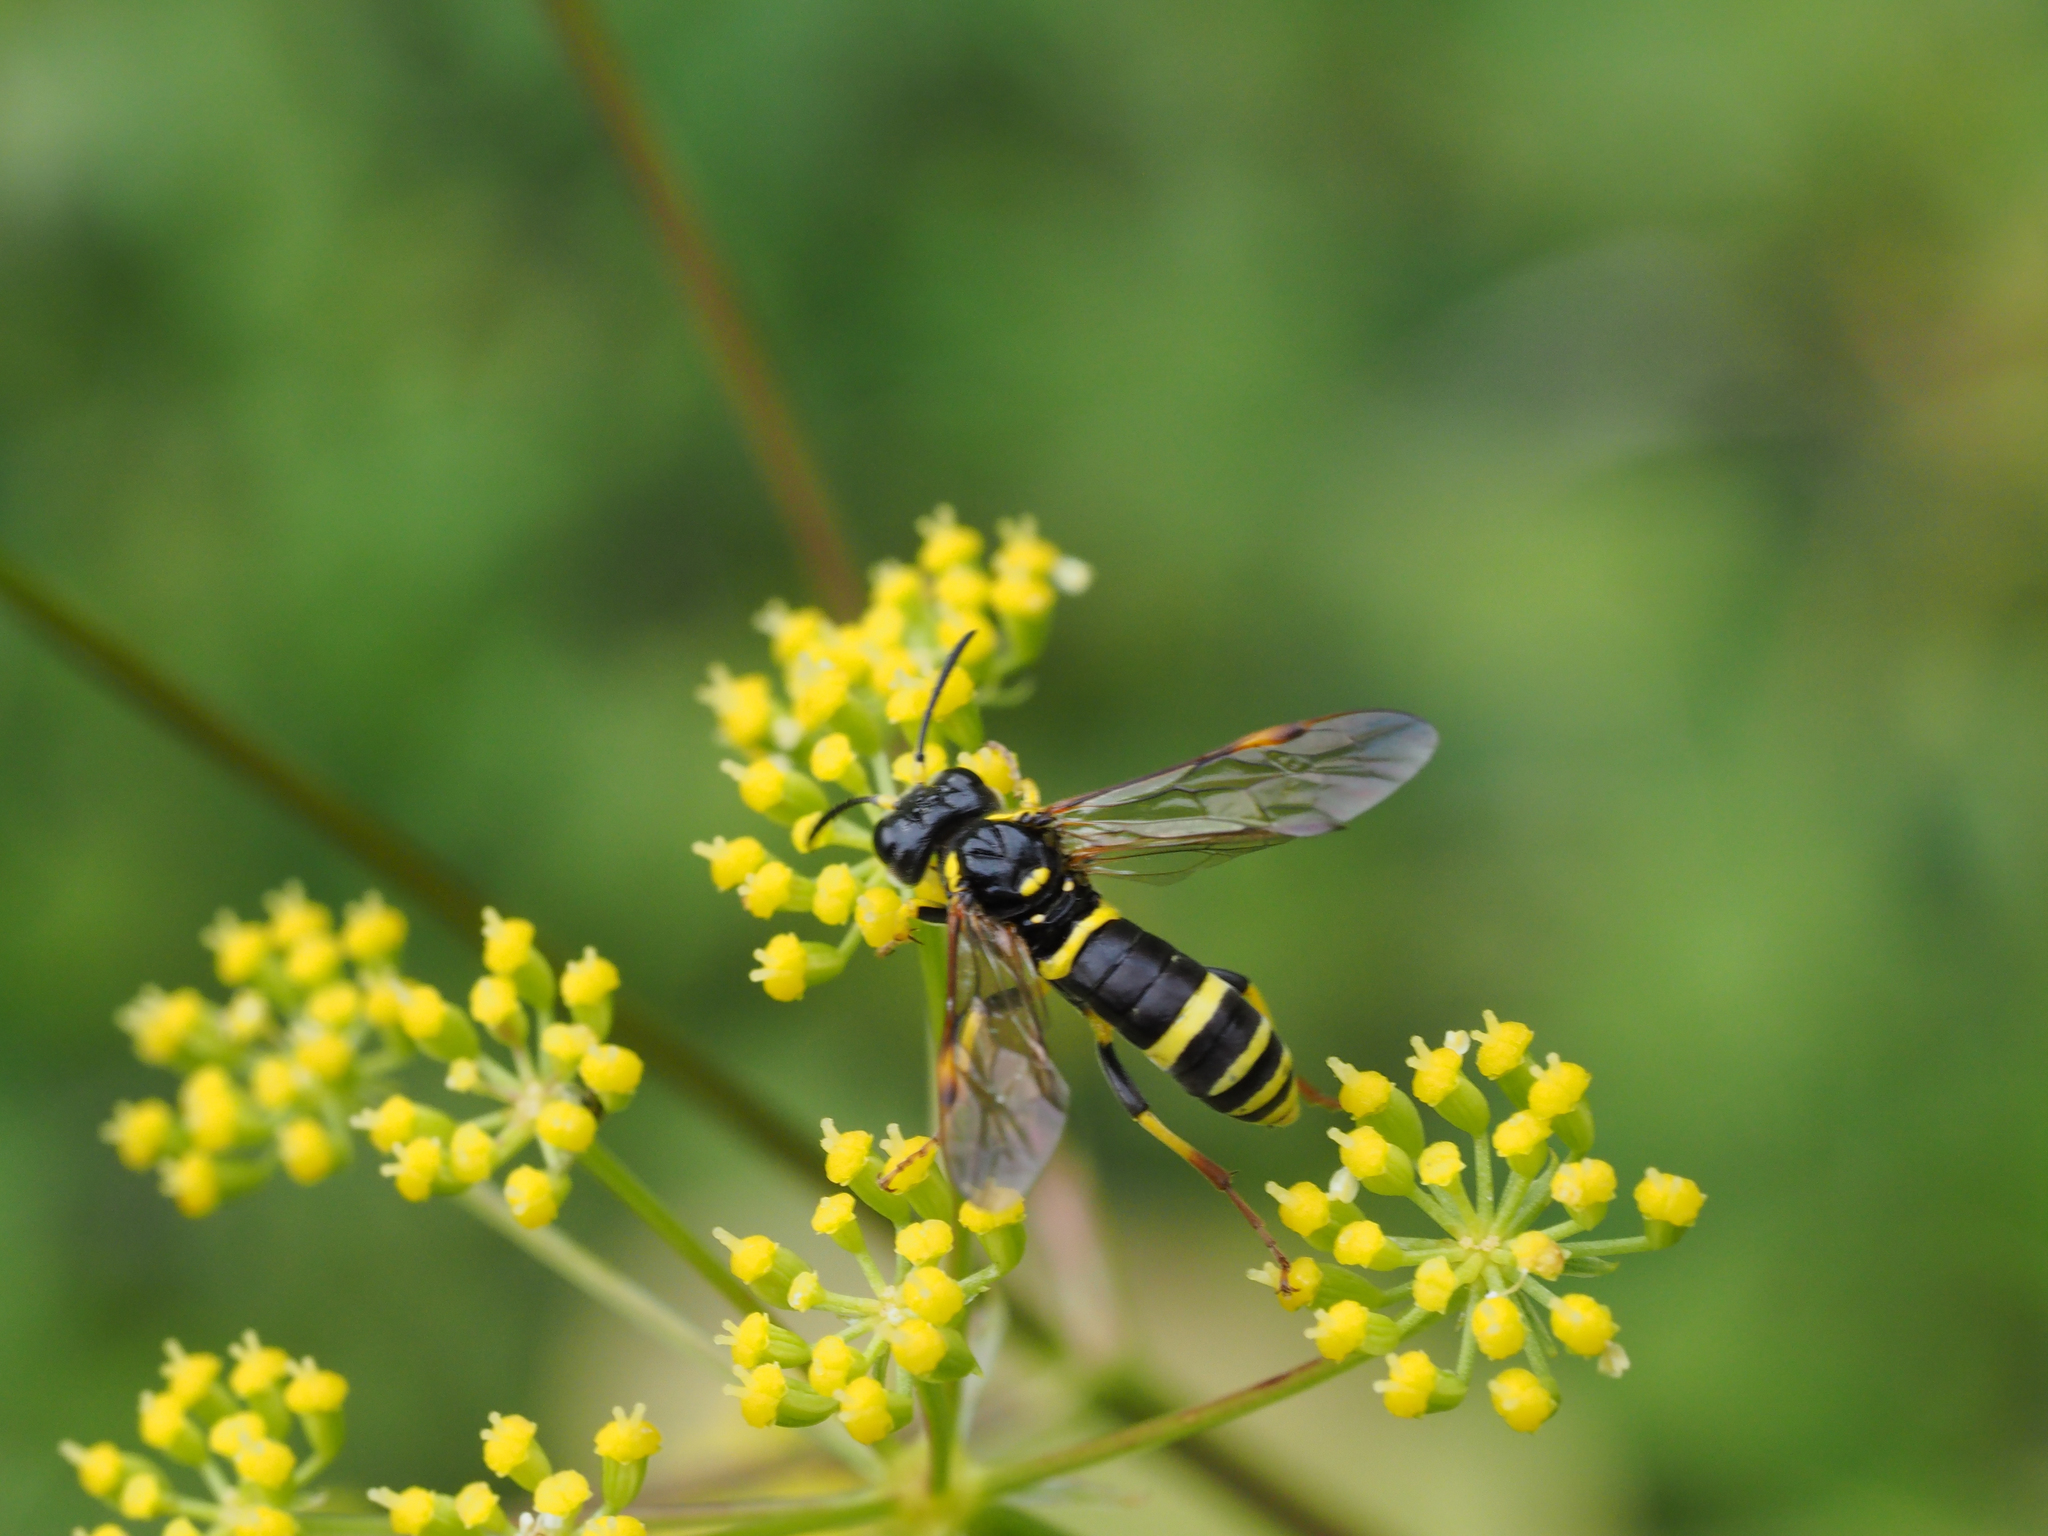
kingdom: Animalia
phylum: Arthropoda
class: Insecta
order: Hymenoptera
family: Tenthredinidae
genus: Tenthredo
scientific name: Tenthredo amoena
